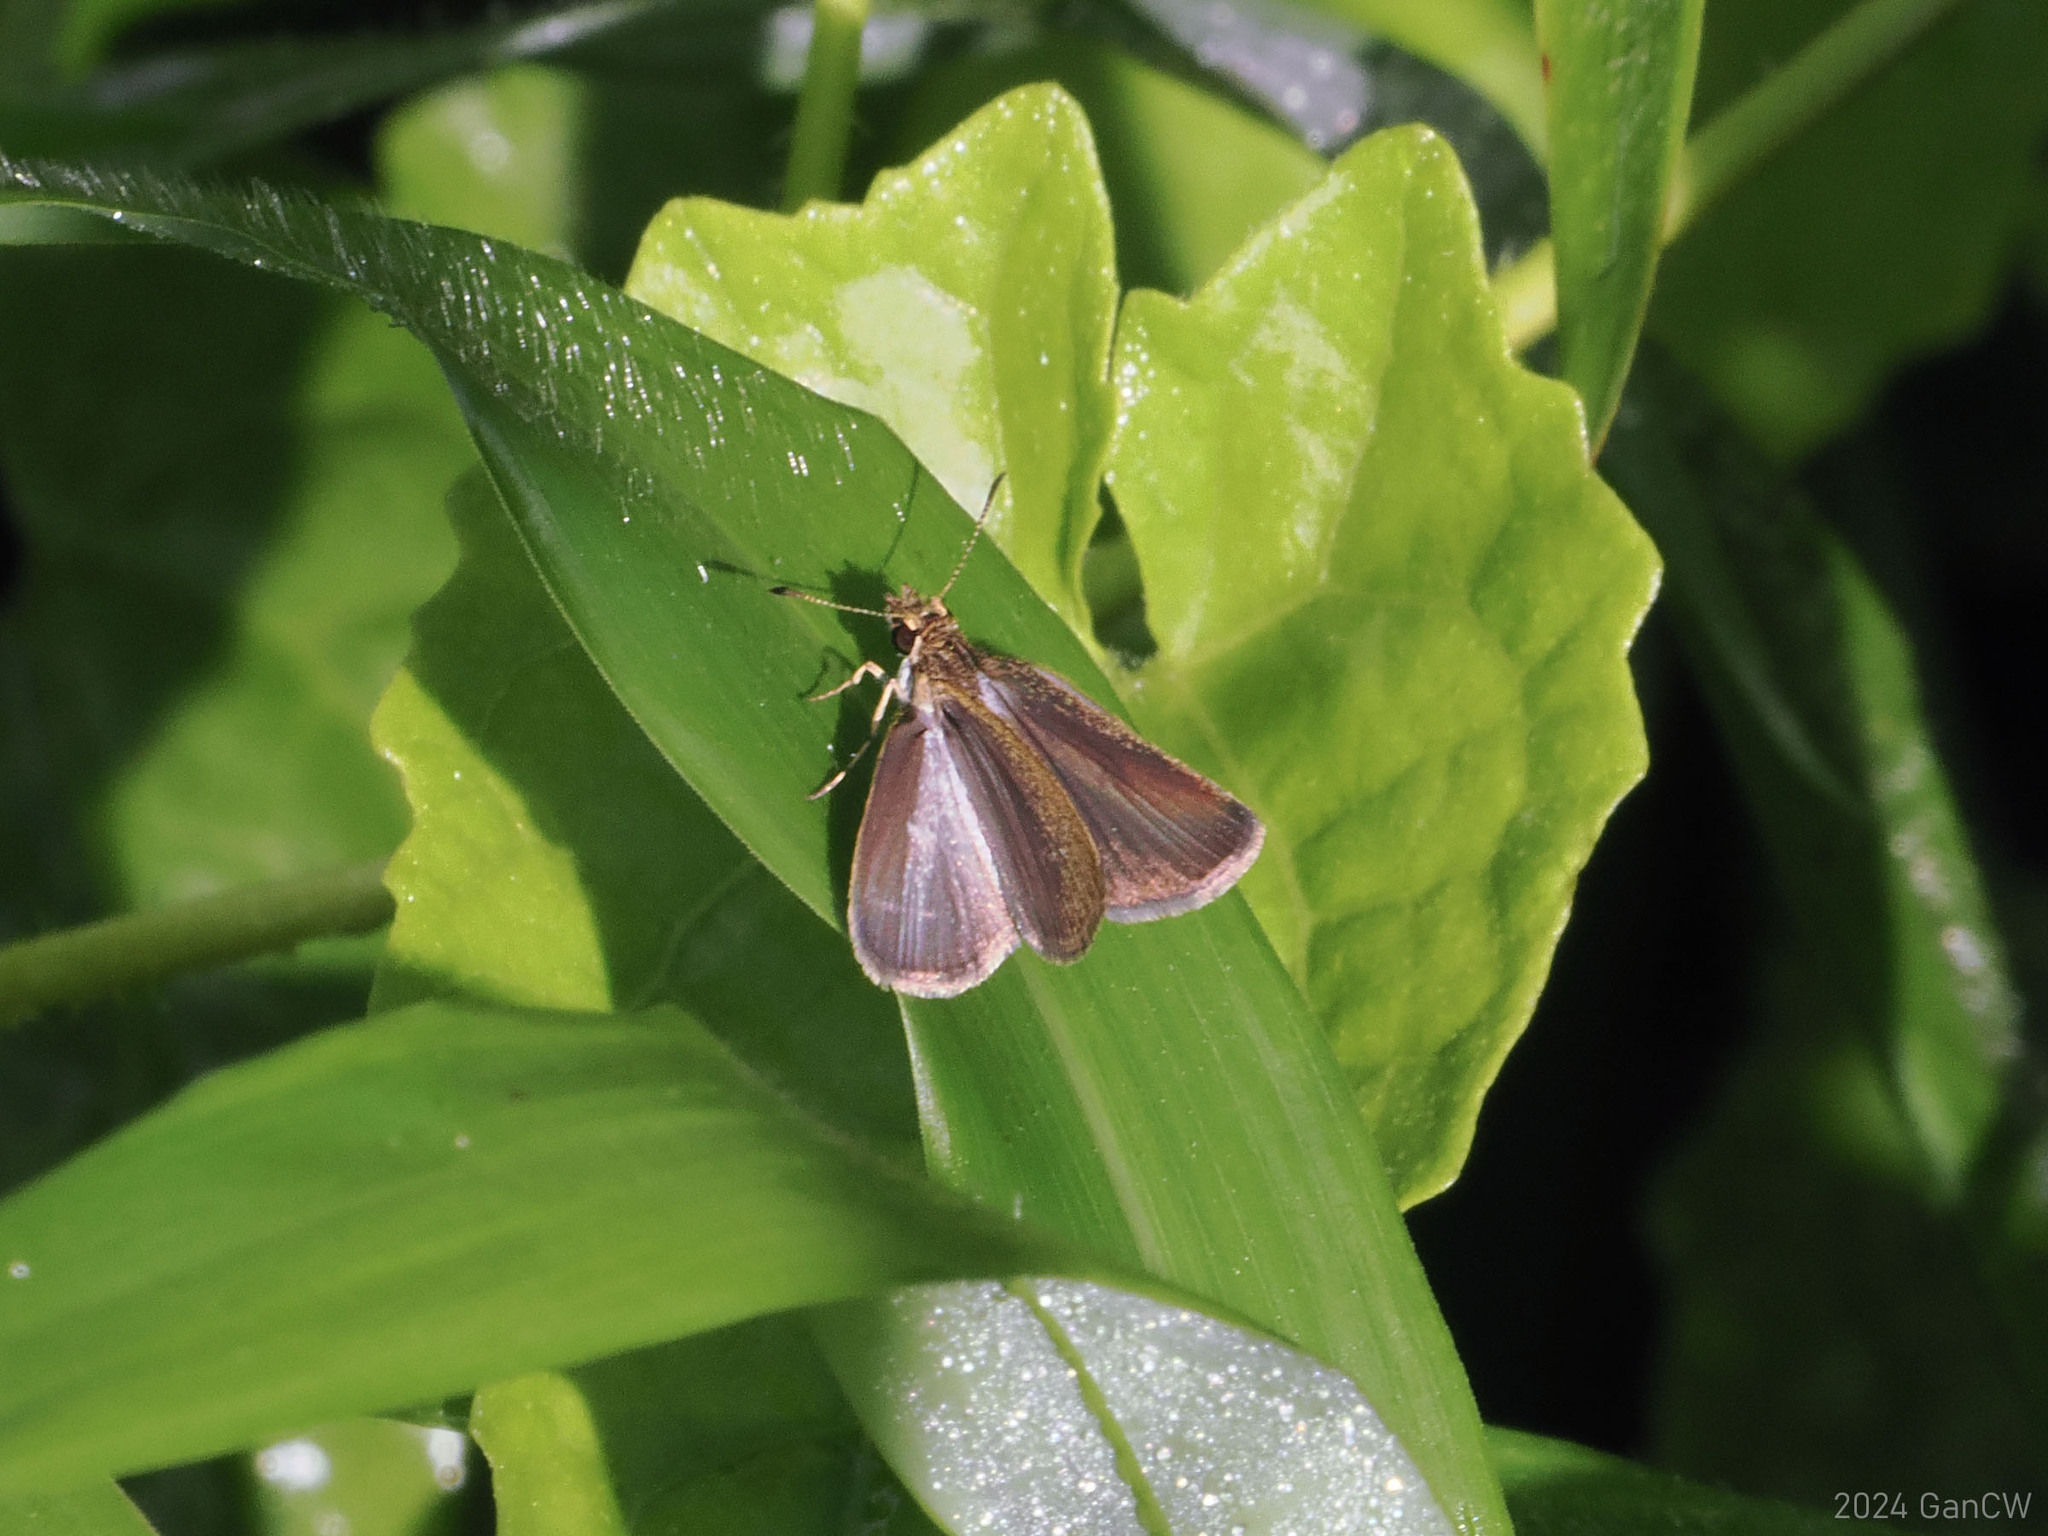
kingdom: Animalia
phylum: Arthropoda
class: Insecta
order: Lepidoptera
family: Hesperiidae
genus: Aeromachus
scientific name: Aeromachus plumbeola
